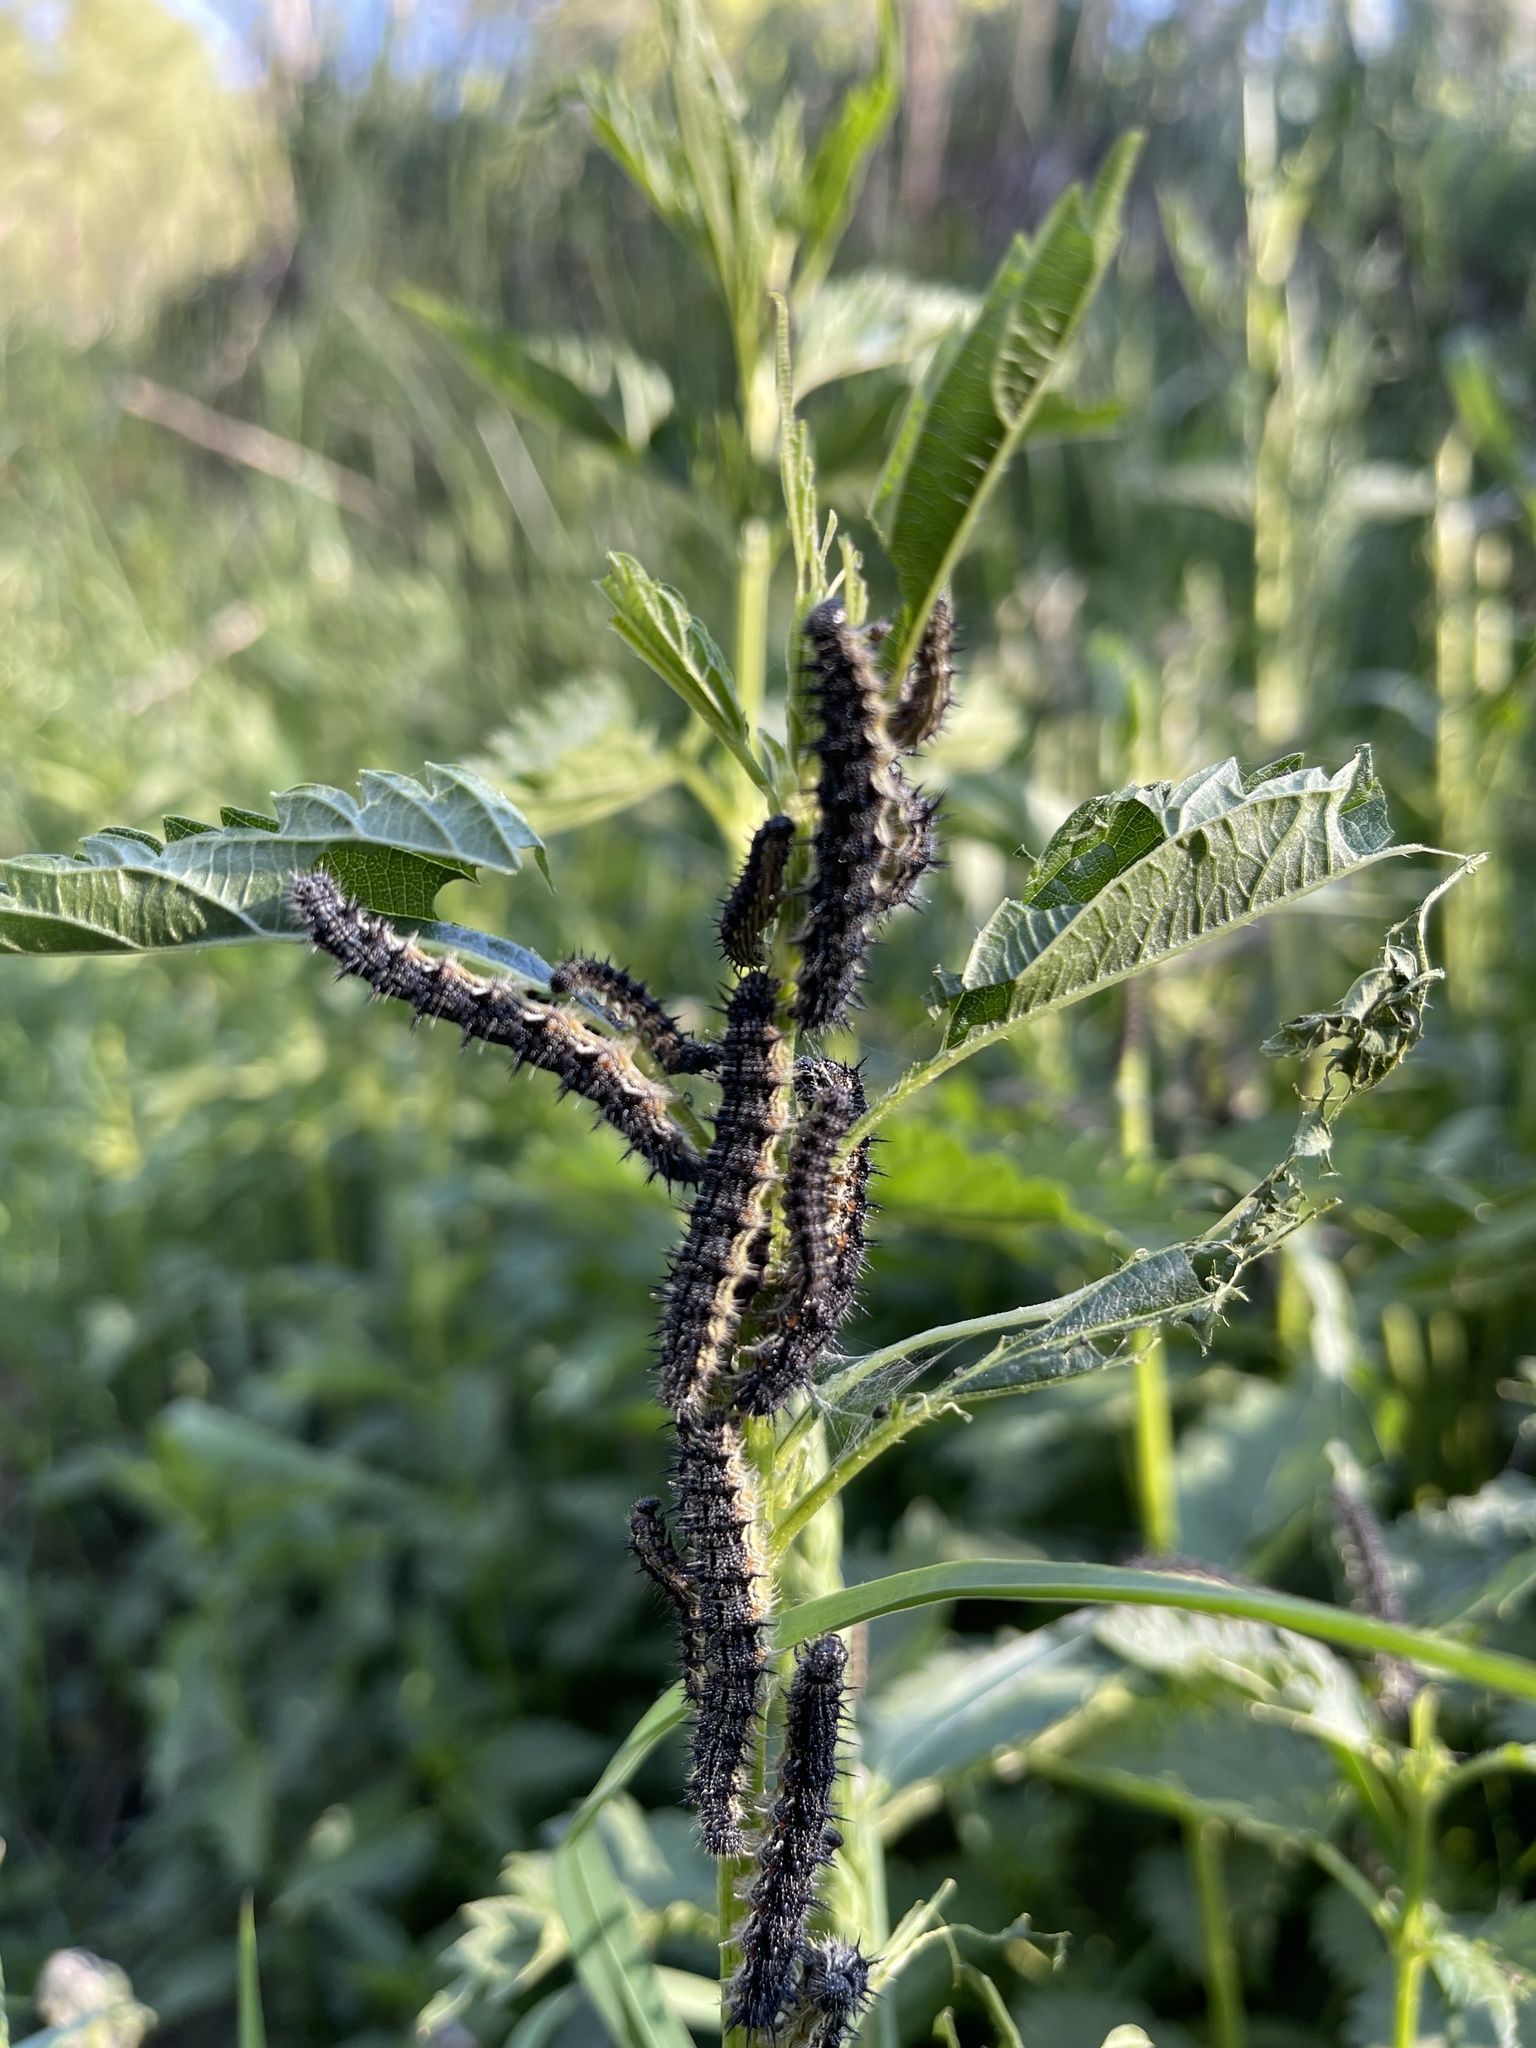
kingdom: Animalia
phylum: Arthropoda
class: Insecta
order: Lepidoptera
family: Nymphalidae
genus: Aglais
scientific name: Aglais milberti
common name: Milbert's tortoiseshell
